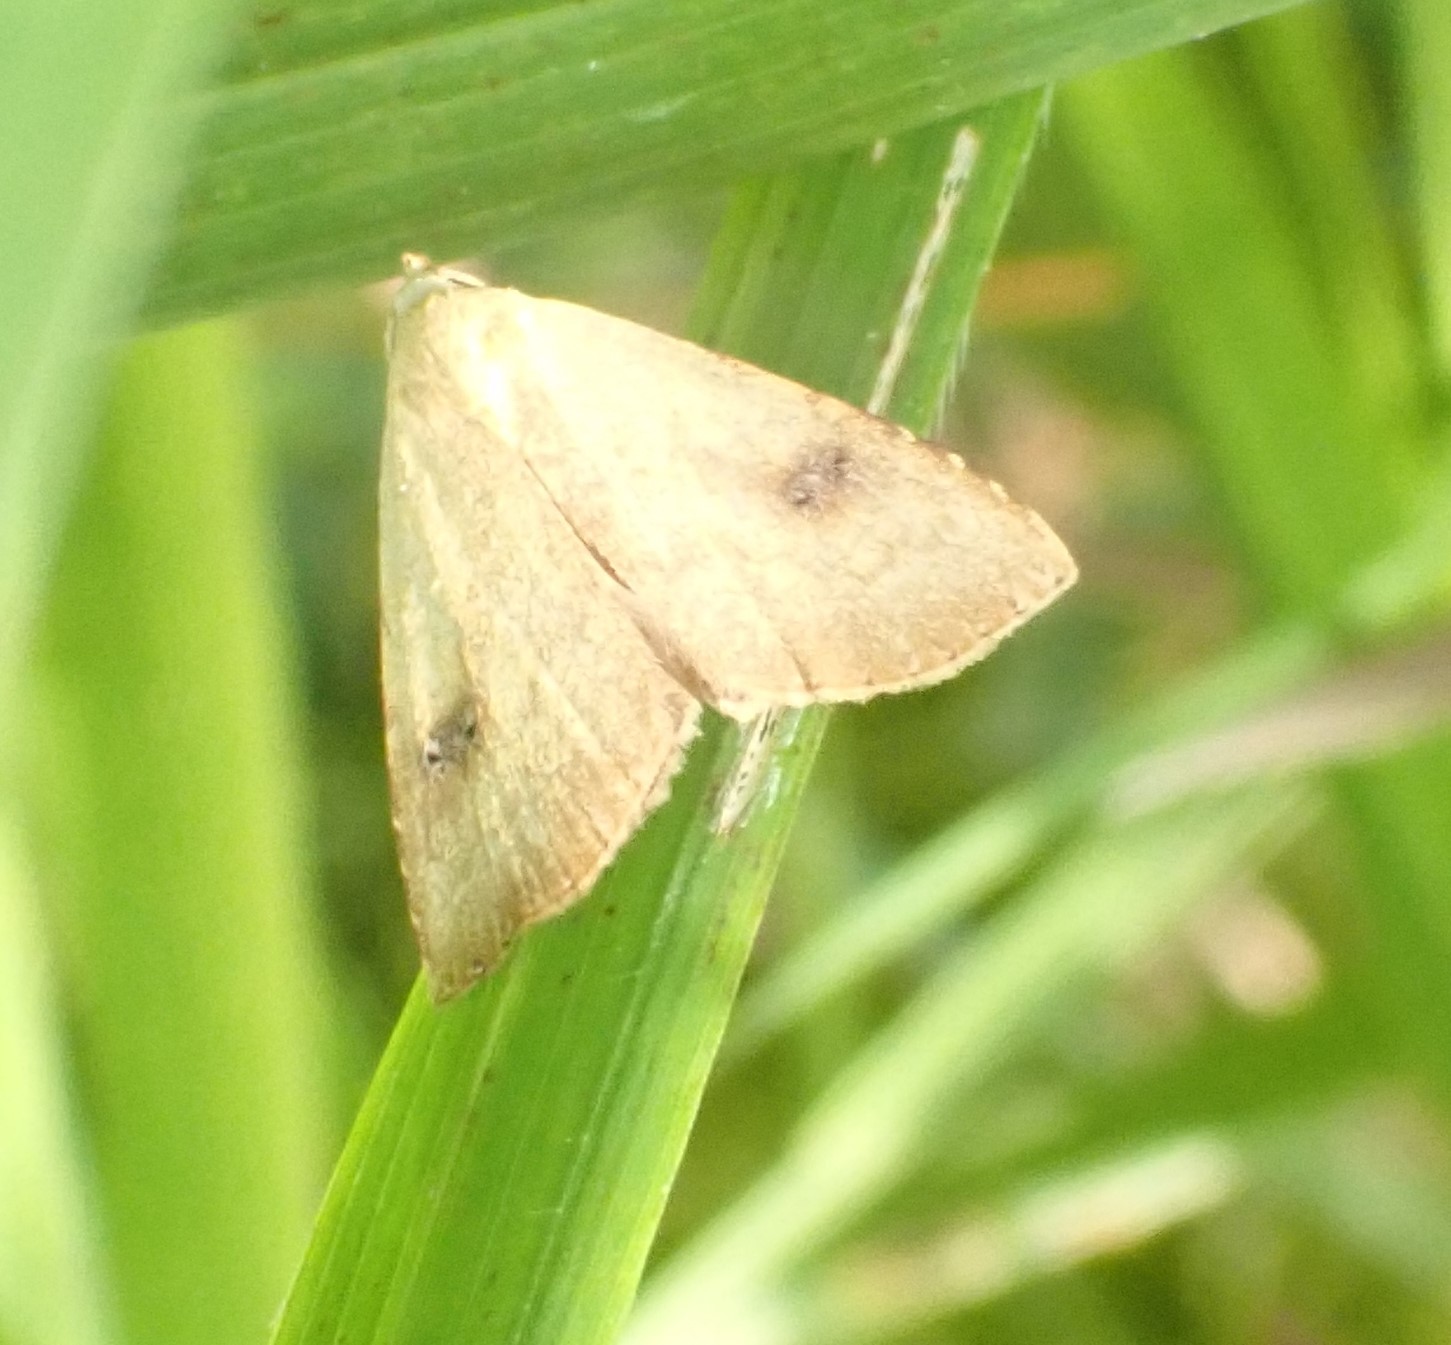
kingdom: Animalia
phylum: Arthropoda
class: Insecta
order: Lepidoptera
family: Erebidae
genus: Rivula
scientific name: Rivula sericealis
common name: Straw dot
